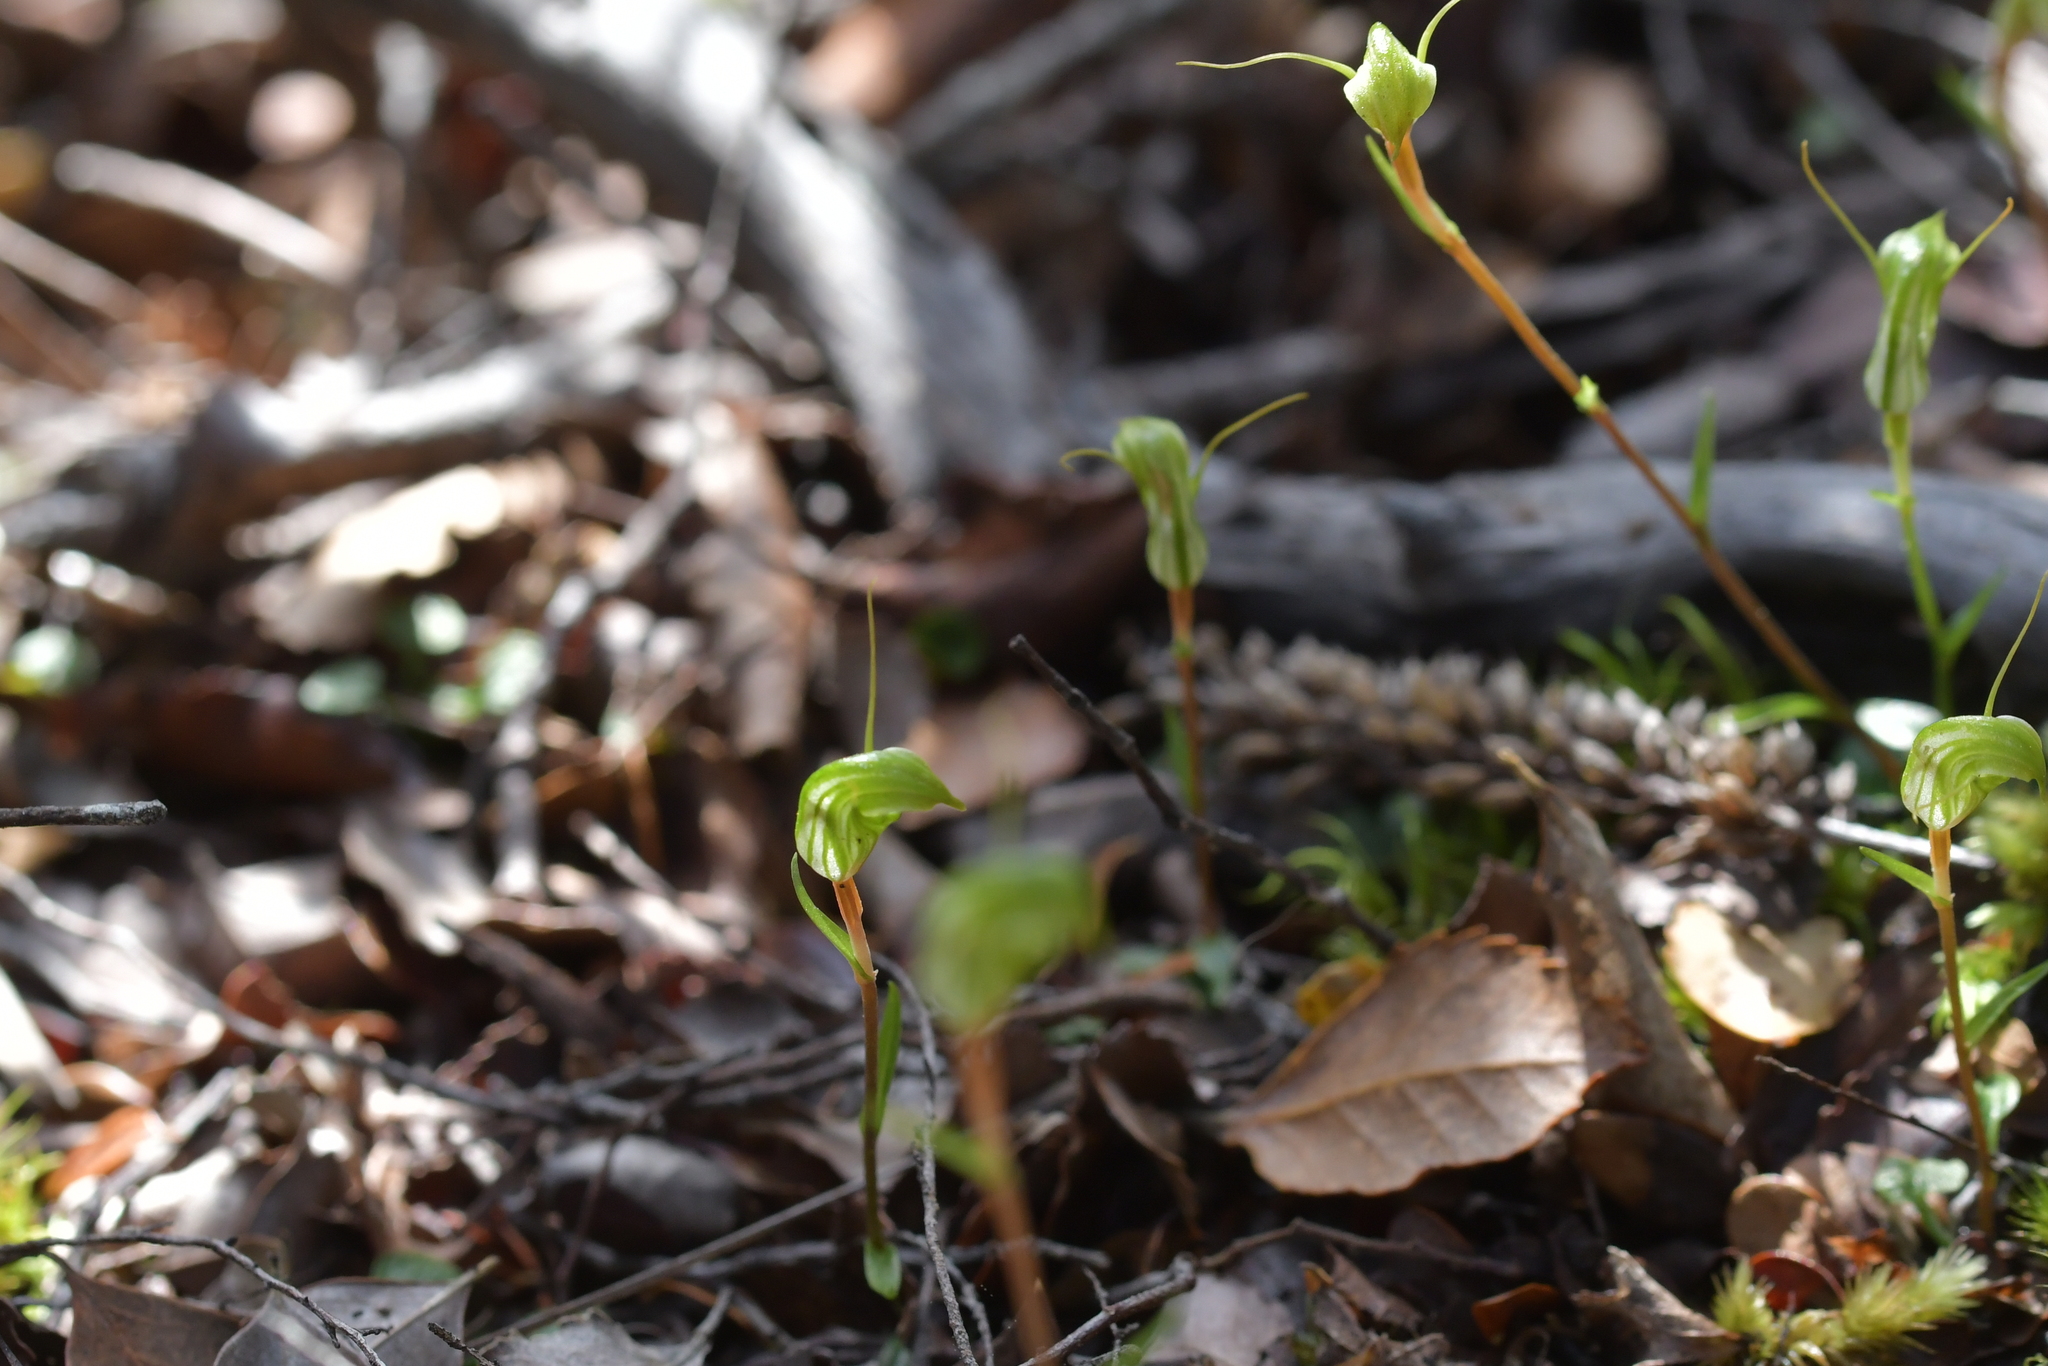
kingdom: Plantae
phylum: Tracheophyta
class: Liliopsida
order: Asparagales
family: Orchidaceae
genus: Pterostylis
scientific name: Pterostylis trullifolia
